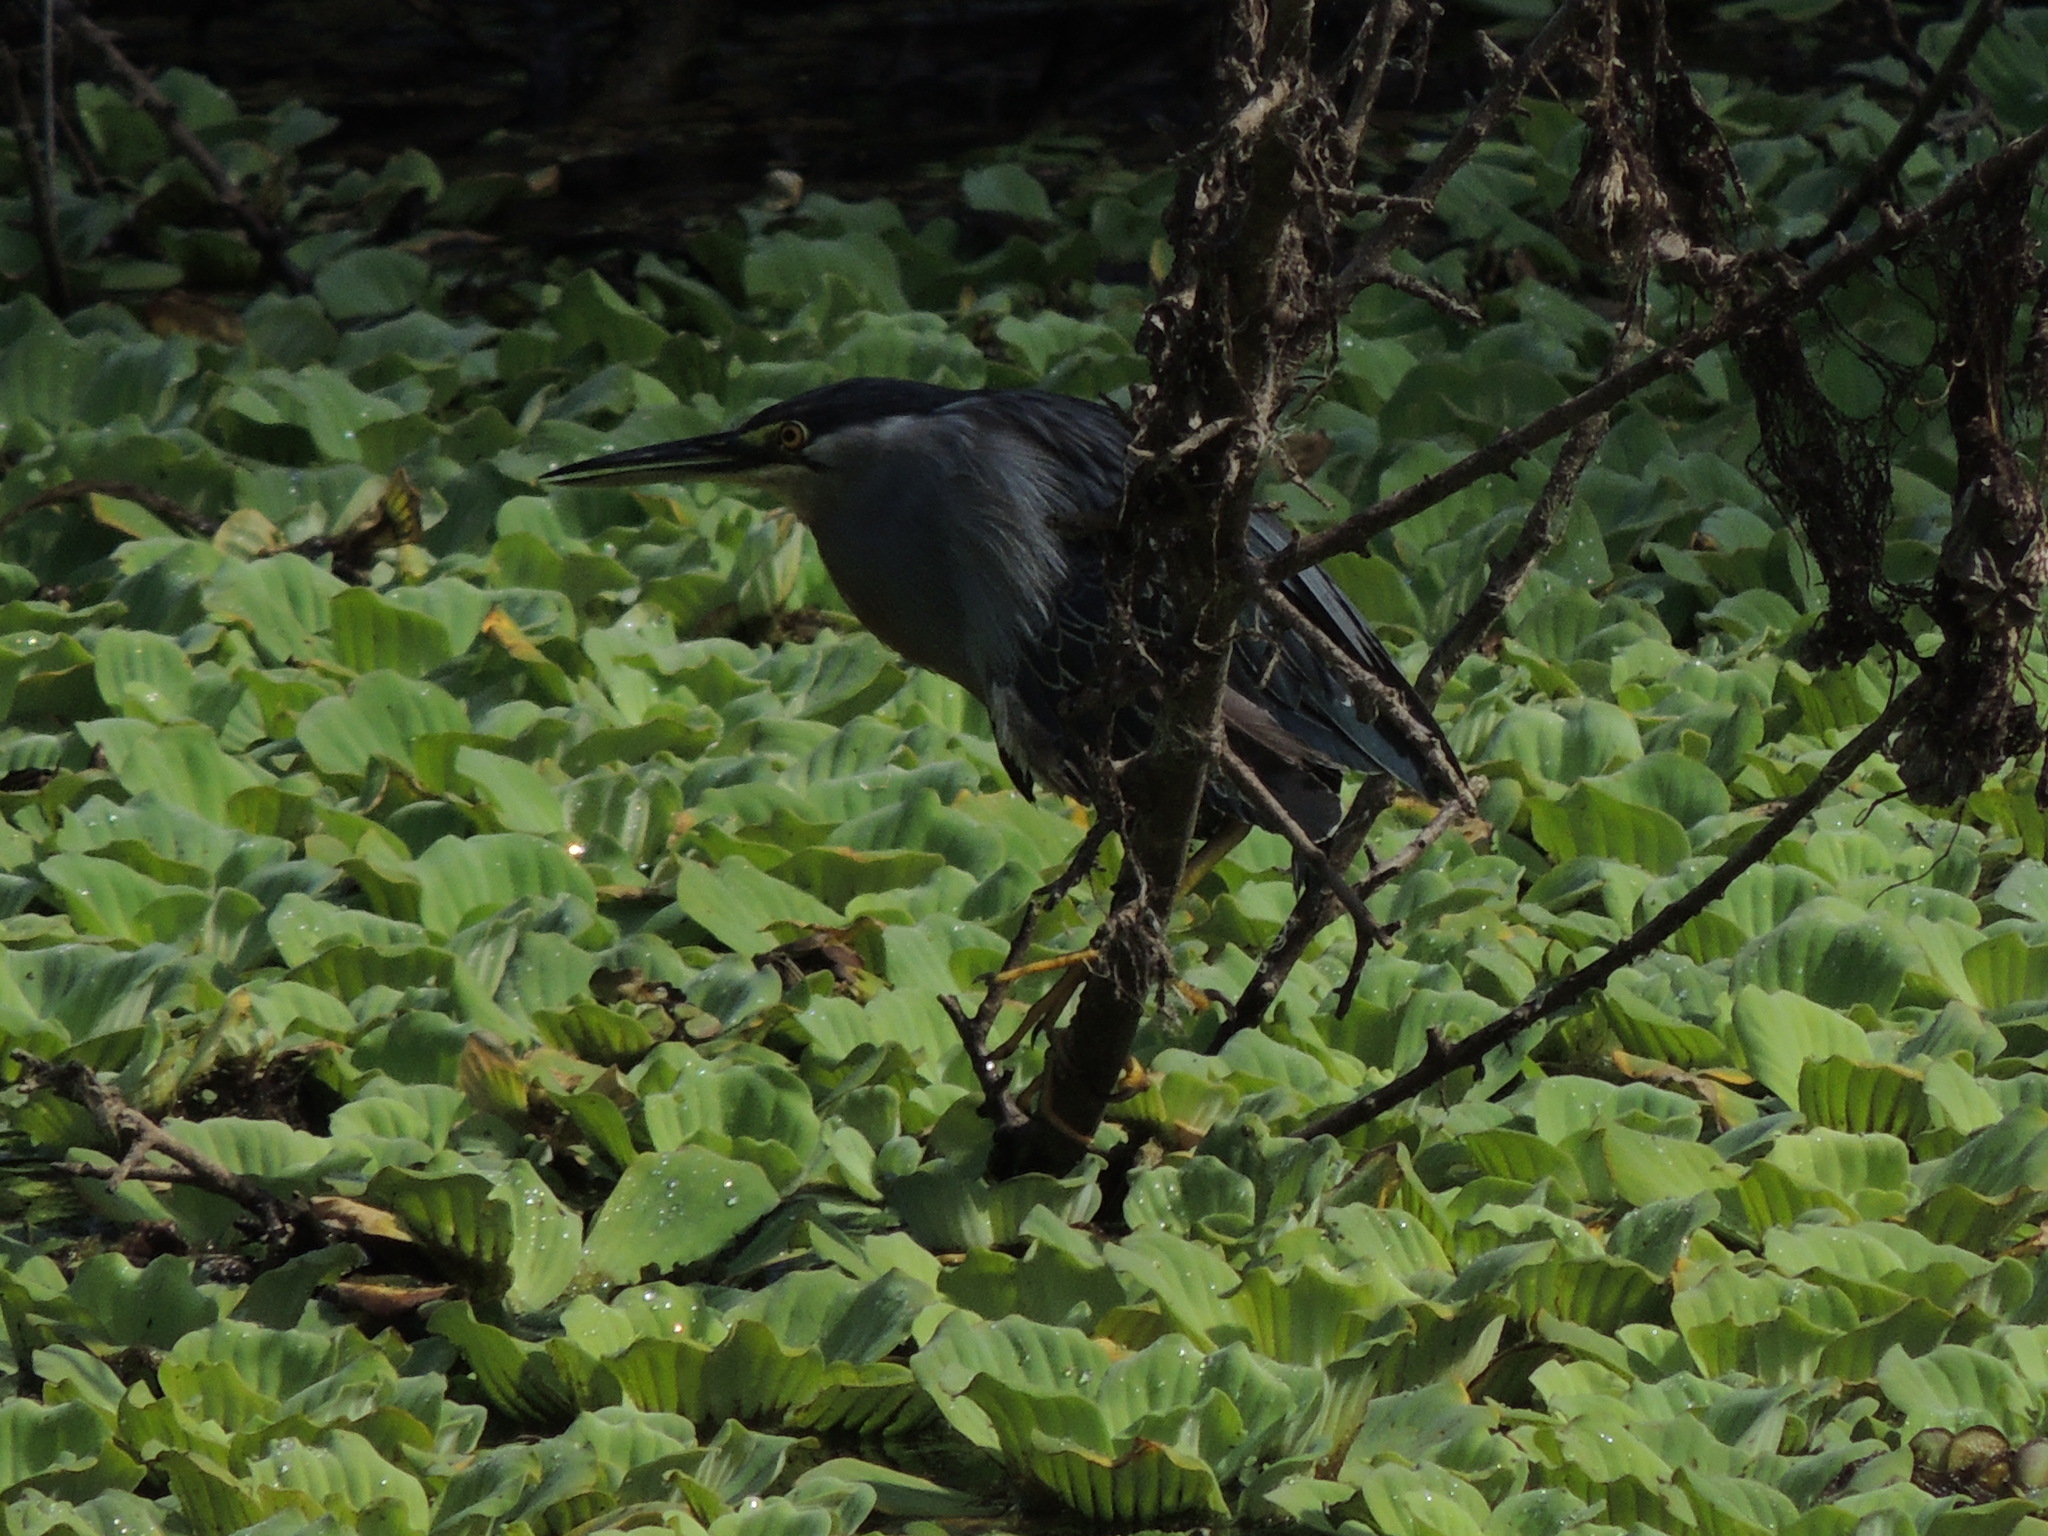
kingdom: Animalia
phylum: Chordata
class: Aves
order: Pelecaniformes
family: Ardeidae
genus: Butorides
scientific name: Butorides striata
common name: Striated heron
